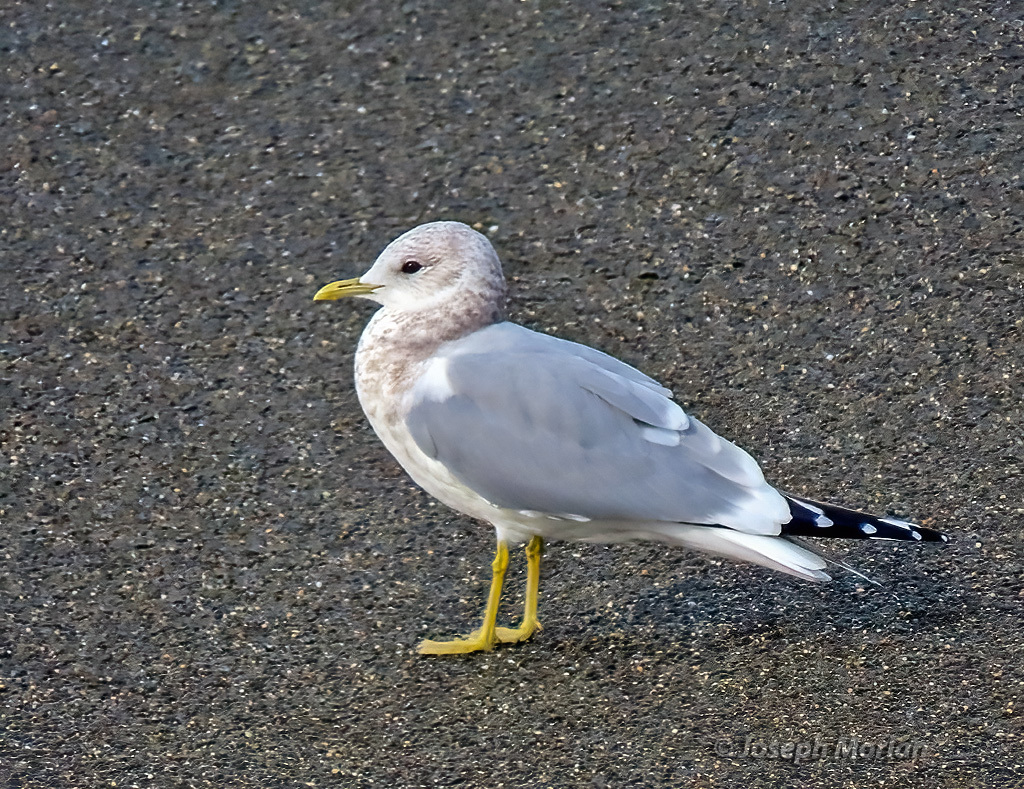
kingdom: Animalia
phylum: Chordata
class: Aves
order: Charadriiformes
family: Laridae
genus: Larus
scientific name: Larus brachyrhynchus
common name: Short-billed gull
